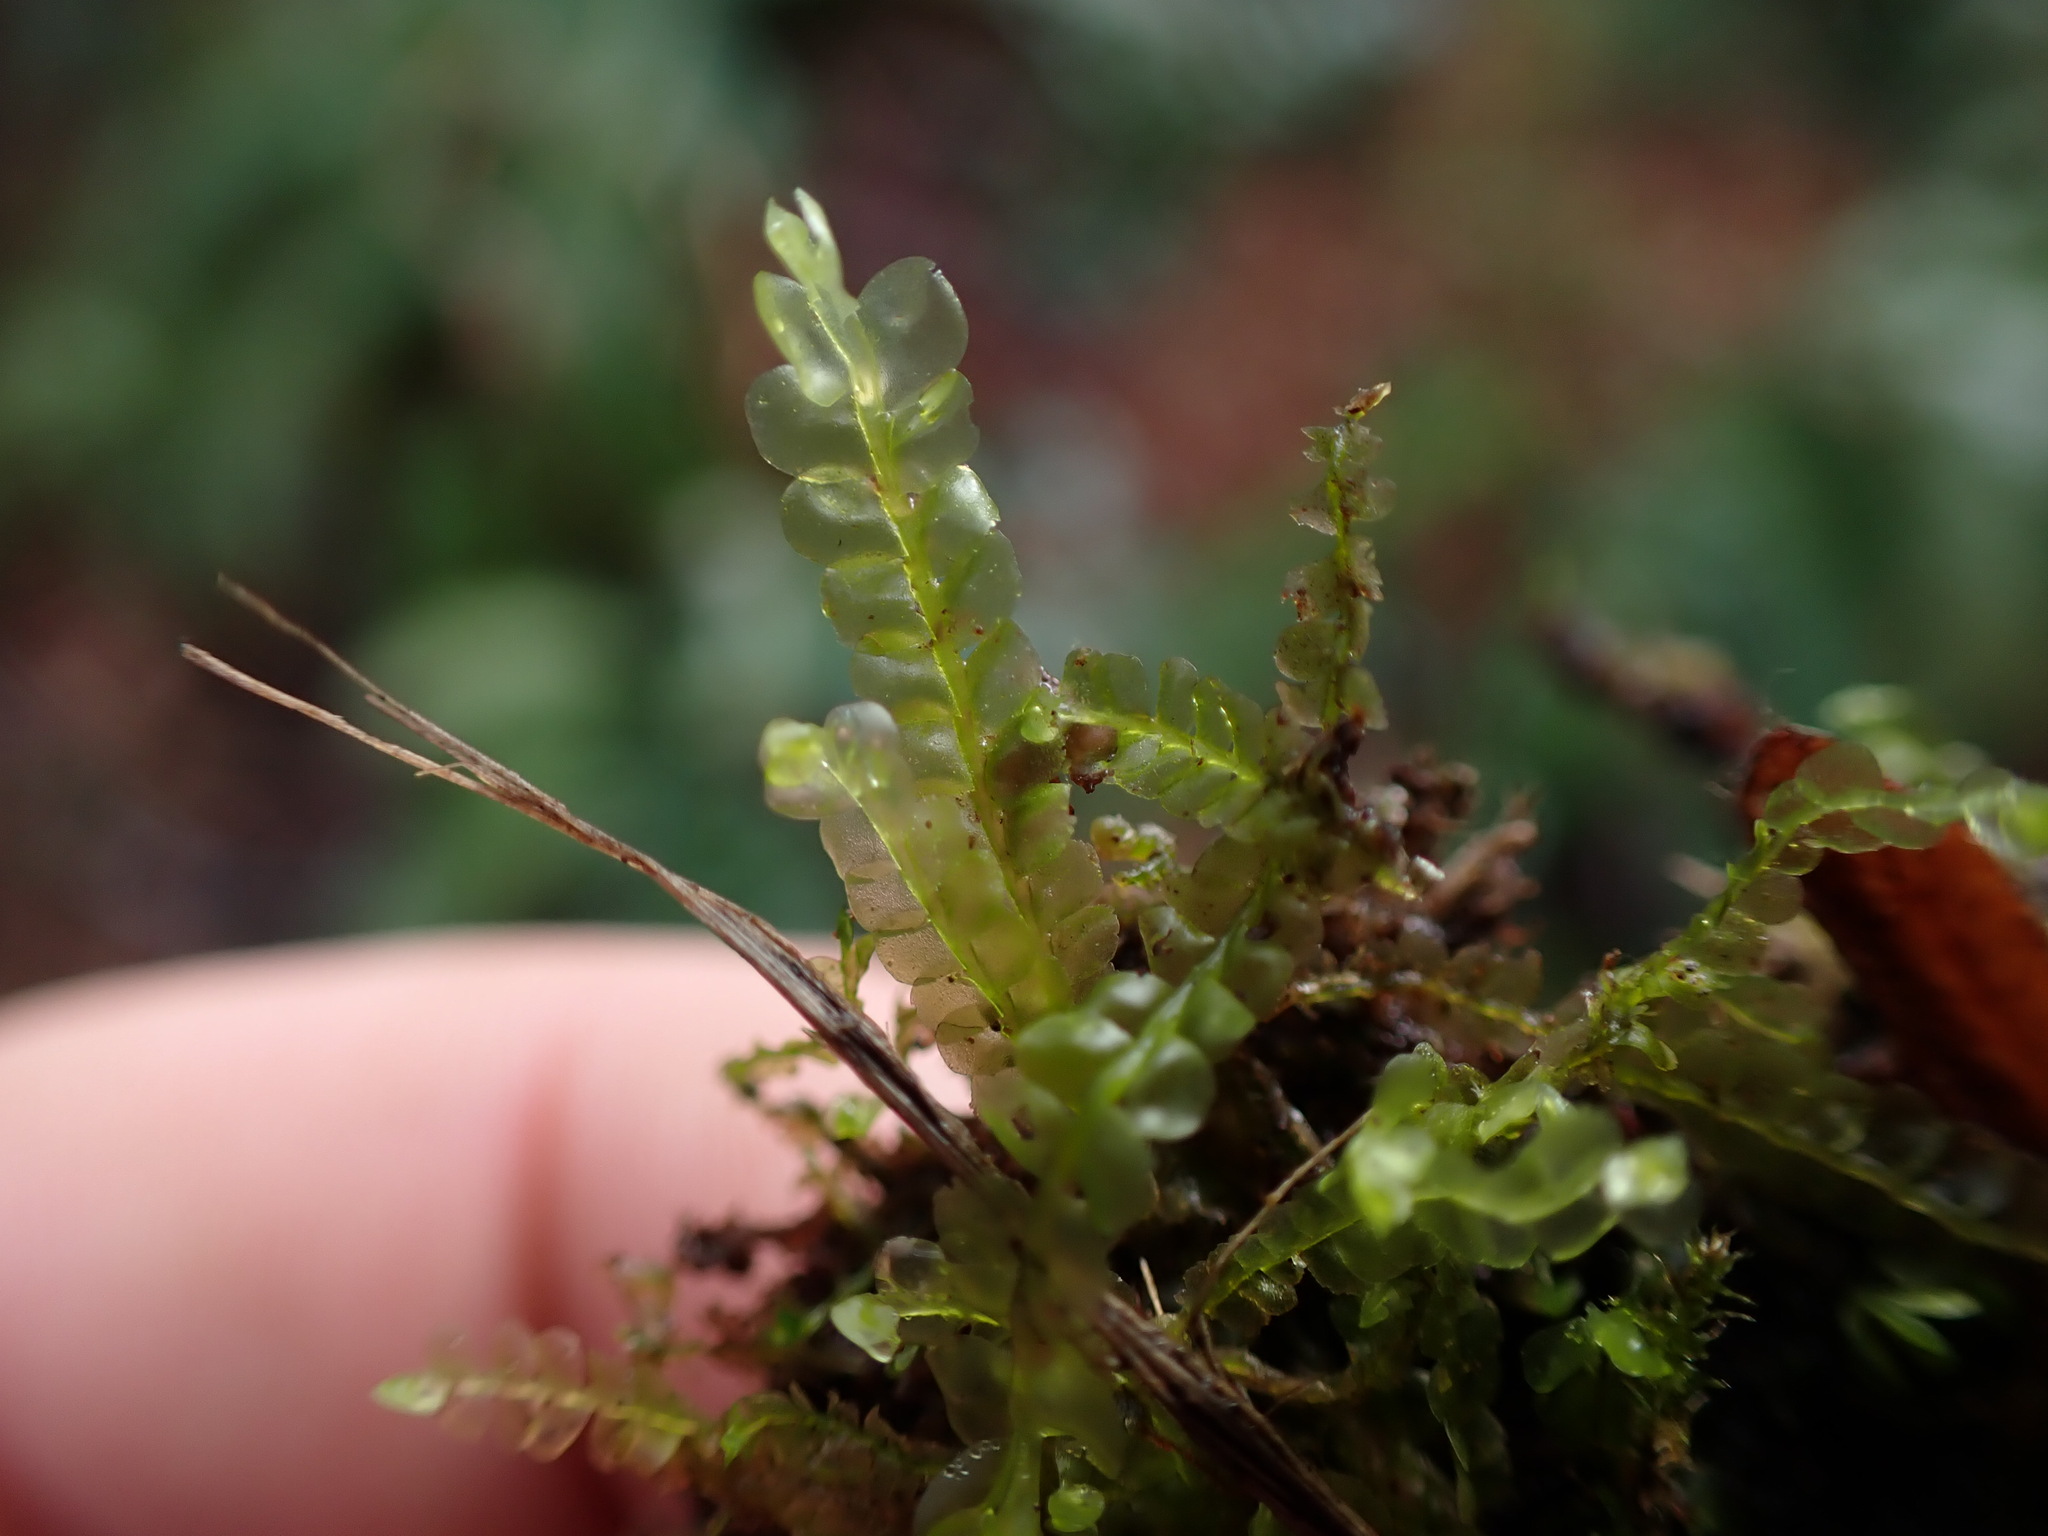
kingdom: Plantae
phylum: Marchantiophyta
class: Jungermanniopsida
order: Jungermanniales
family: Lophocoleaceae
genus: Chiloscyphus
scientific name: Chiloscyphus polyanthos
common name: Square-leaved crestwort
